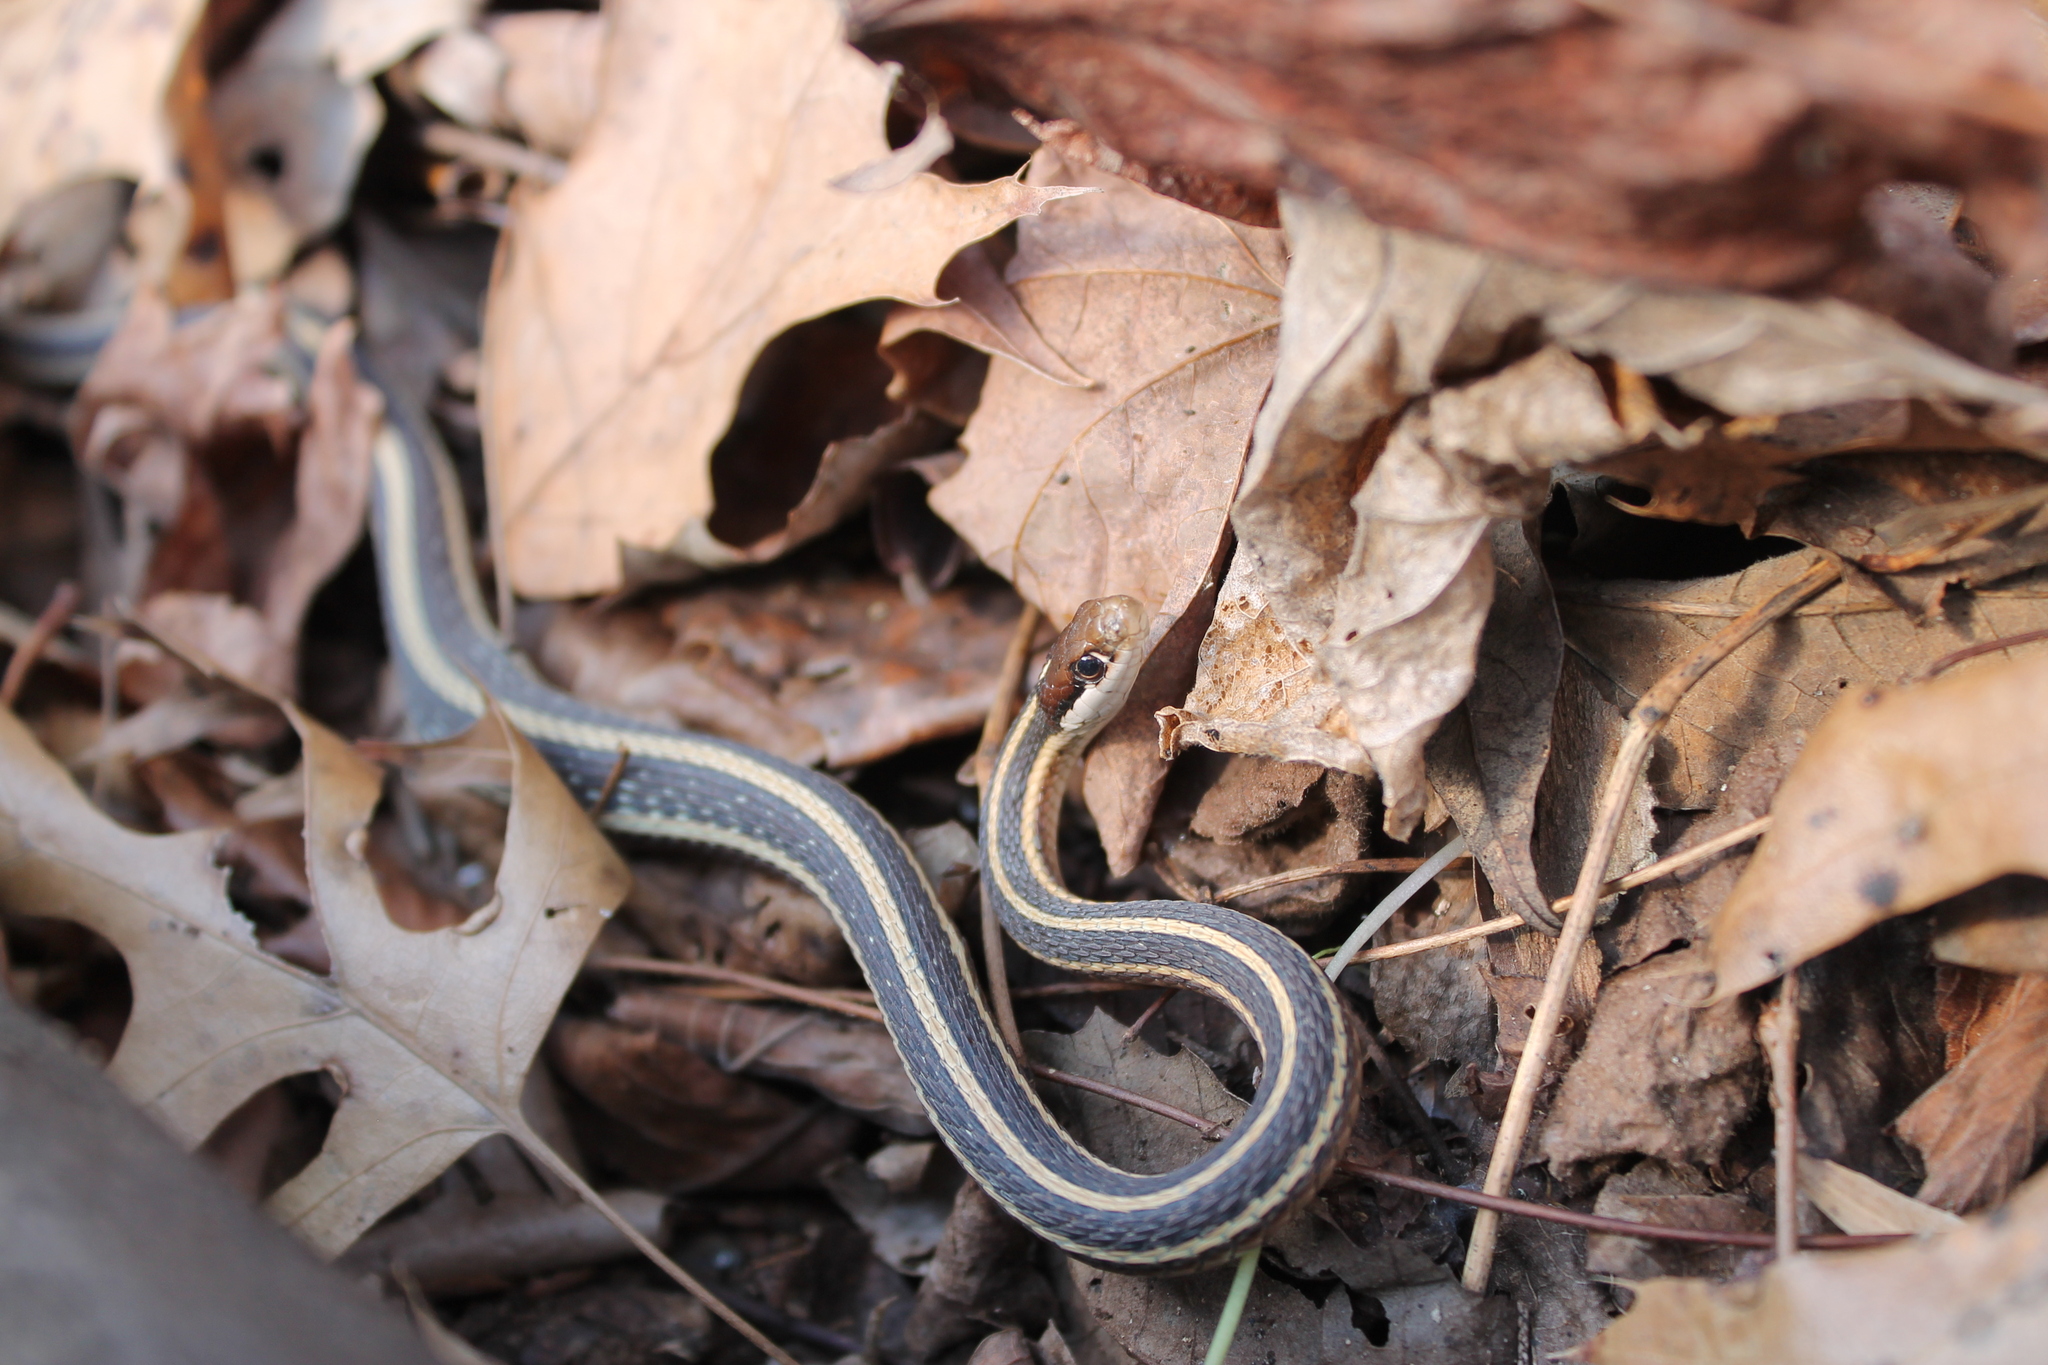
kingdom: Animalia
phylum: Chordata
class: Squamata
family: Colubridae
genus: Thamnophis
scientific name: Thamnophis saurita
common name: Eastern ribbonsnake
